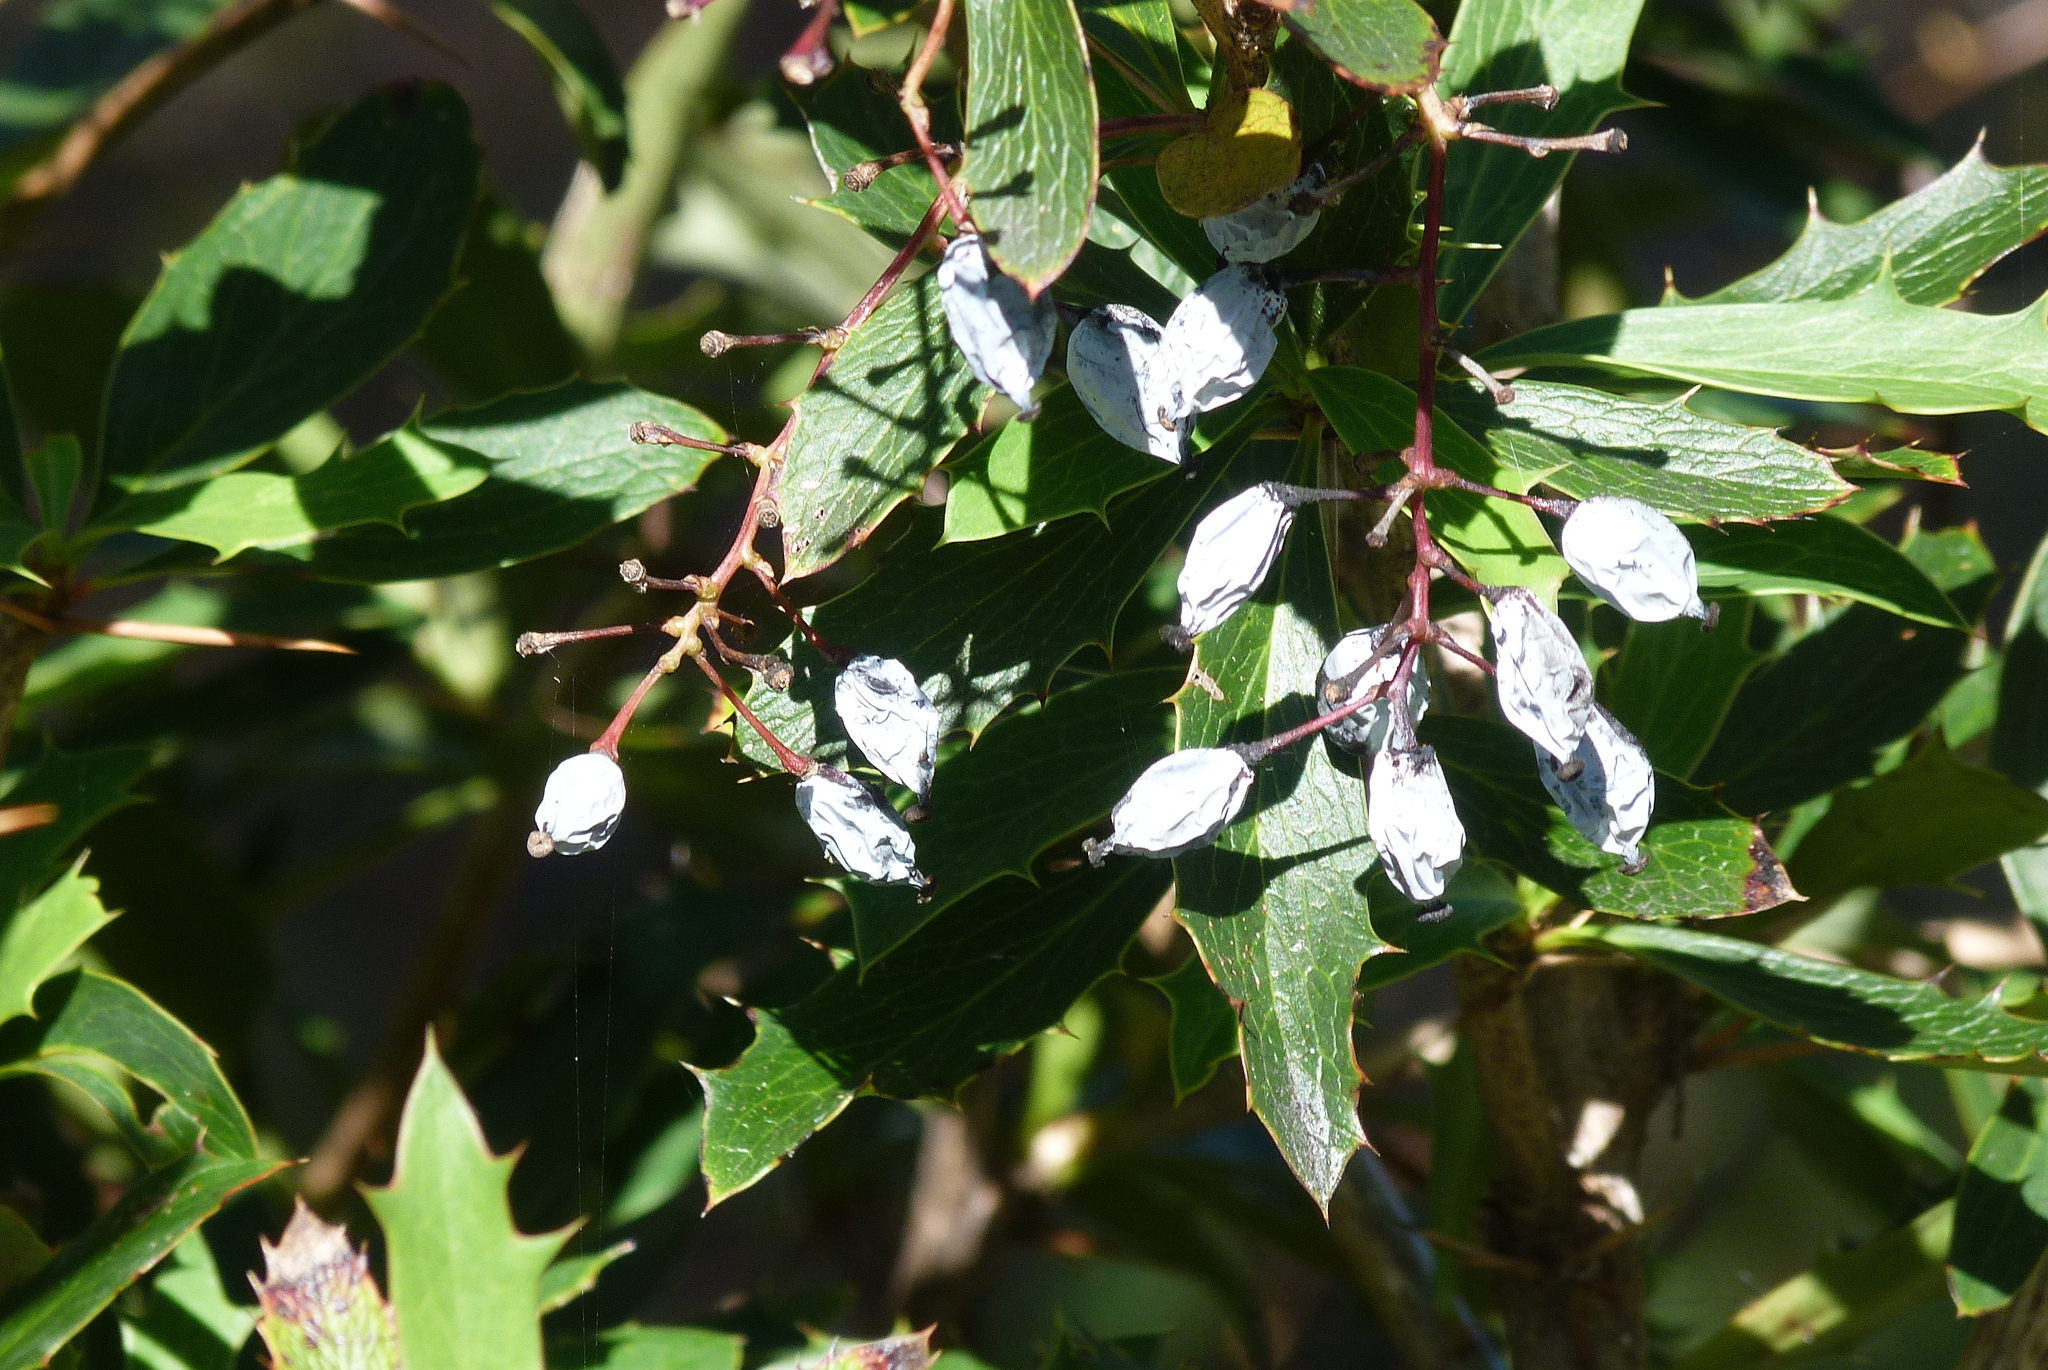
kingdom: Plantae
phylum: Tracheophyta
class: Magnoliopsida
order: Ranunculales
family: Berberidaceae
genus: Berberis
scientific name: Berberis glaucocarpa
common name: Great barberry
